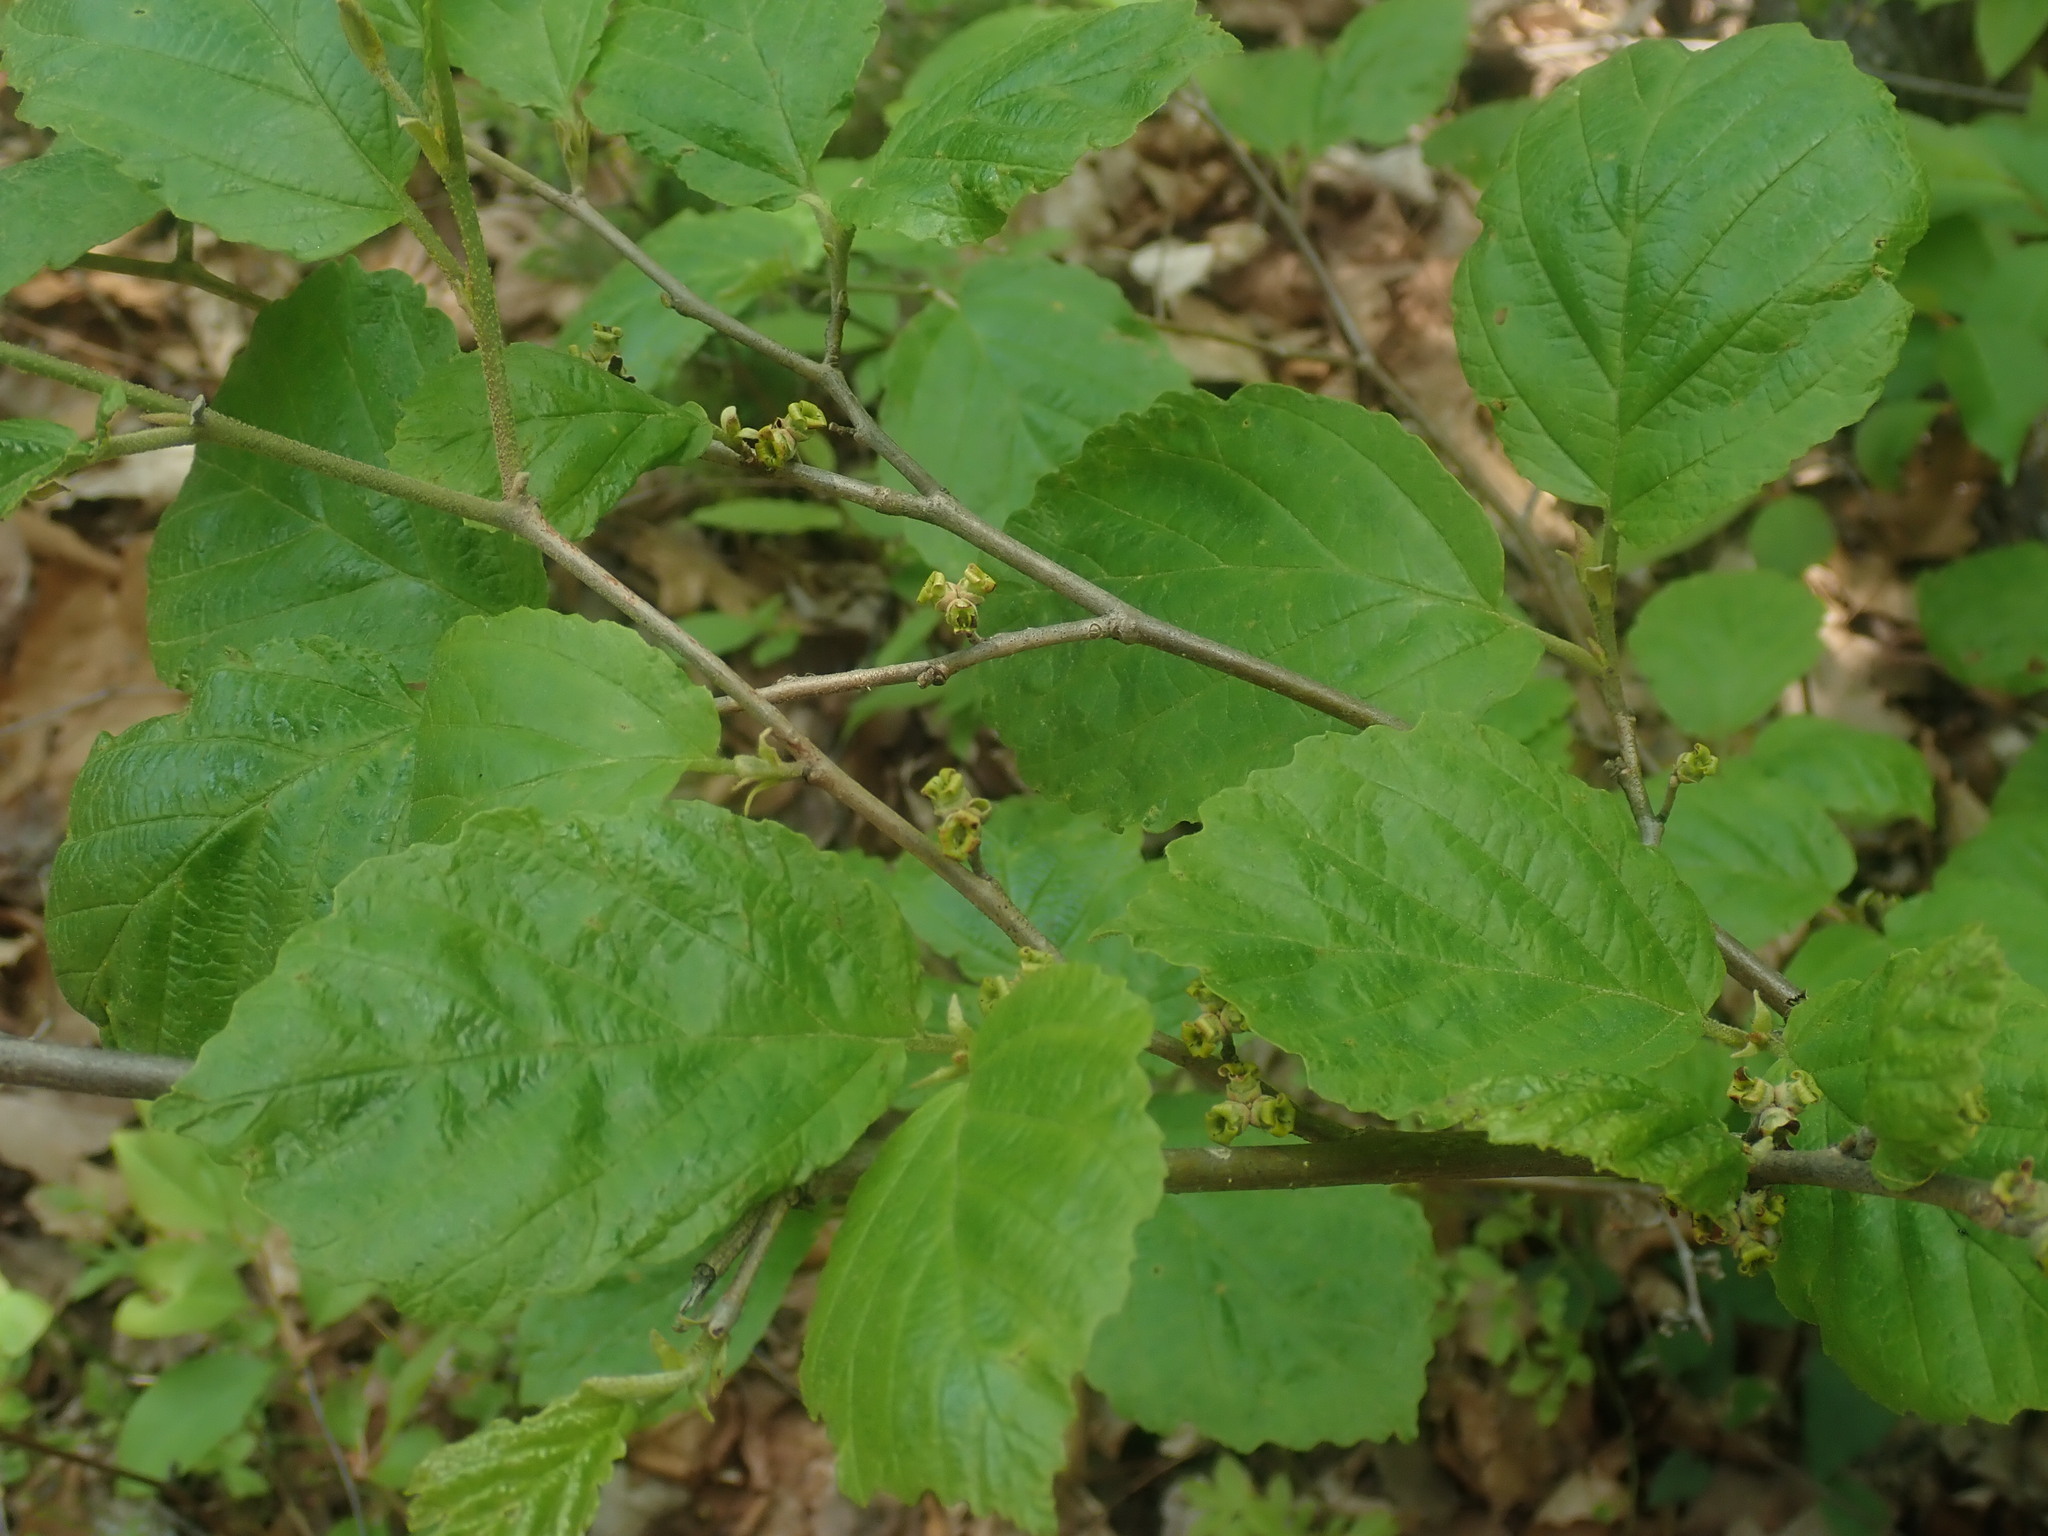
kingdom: Plantae
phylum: Tracheophyta
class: Magnoliopsida
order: Saxifragales
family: Hamamelidaceae
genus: Hamamelis
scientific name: Hamamelis virginiana
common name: Witch-hazel
